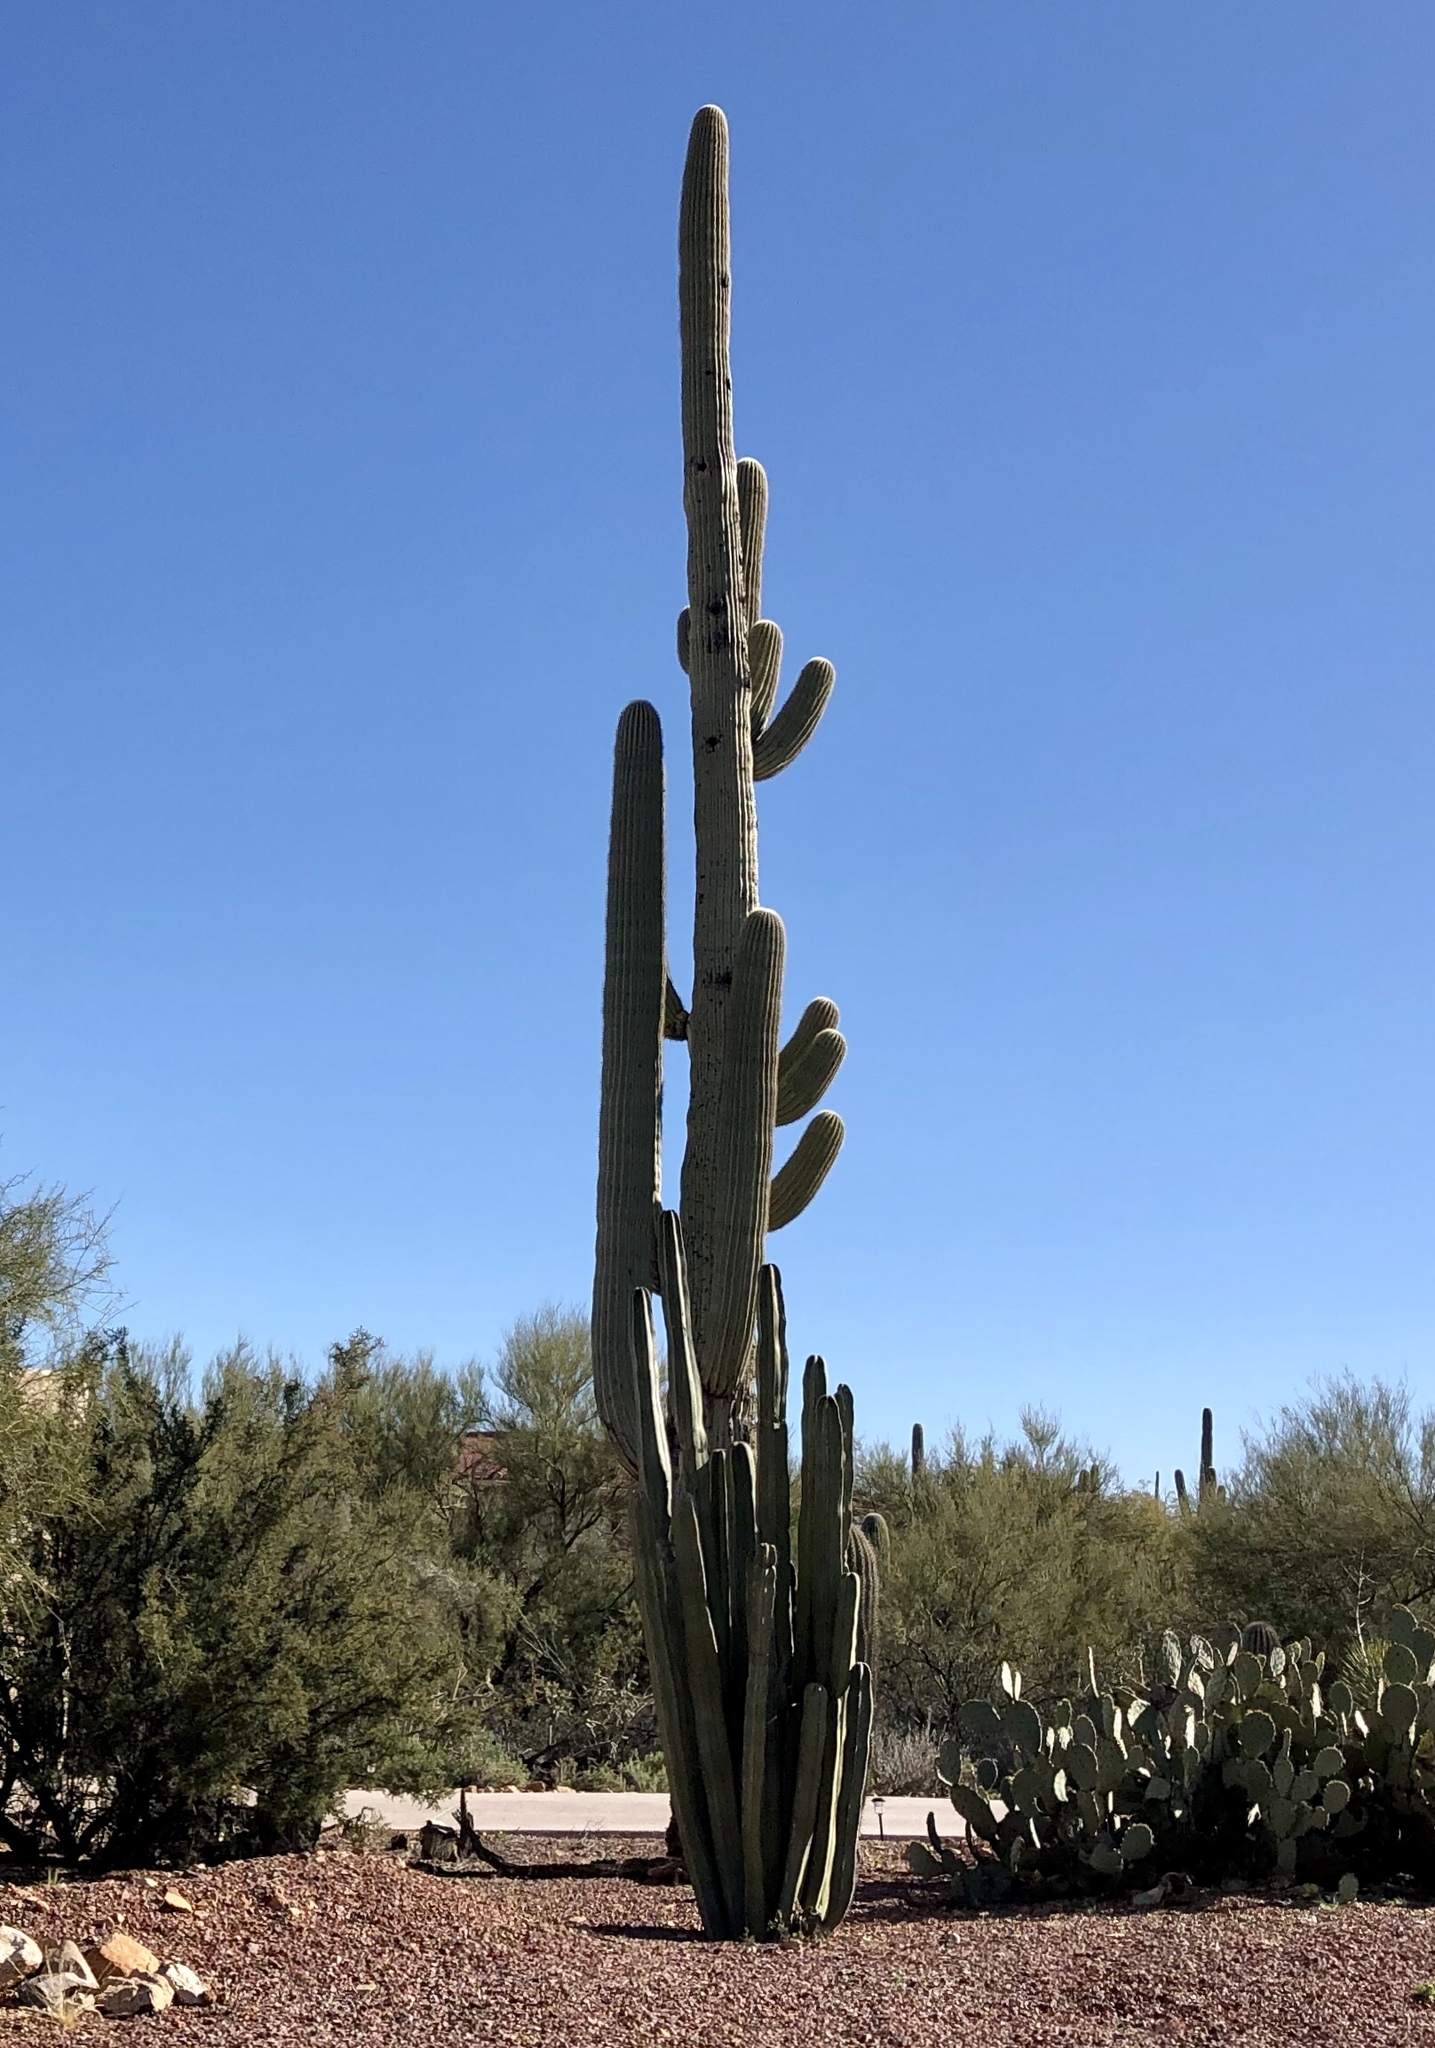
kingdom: Plantae
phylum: Tracheophyta
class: Magnoliopsida
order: Caryophyllales
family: Cactaceae
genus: Carnegiea
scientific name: Carnegiea gigantea
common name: Saguaro
